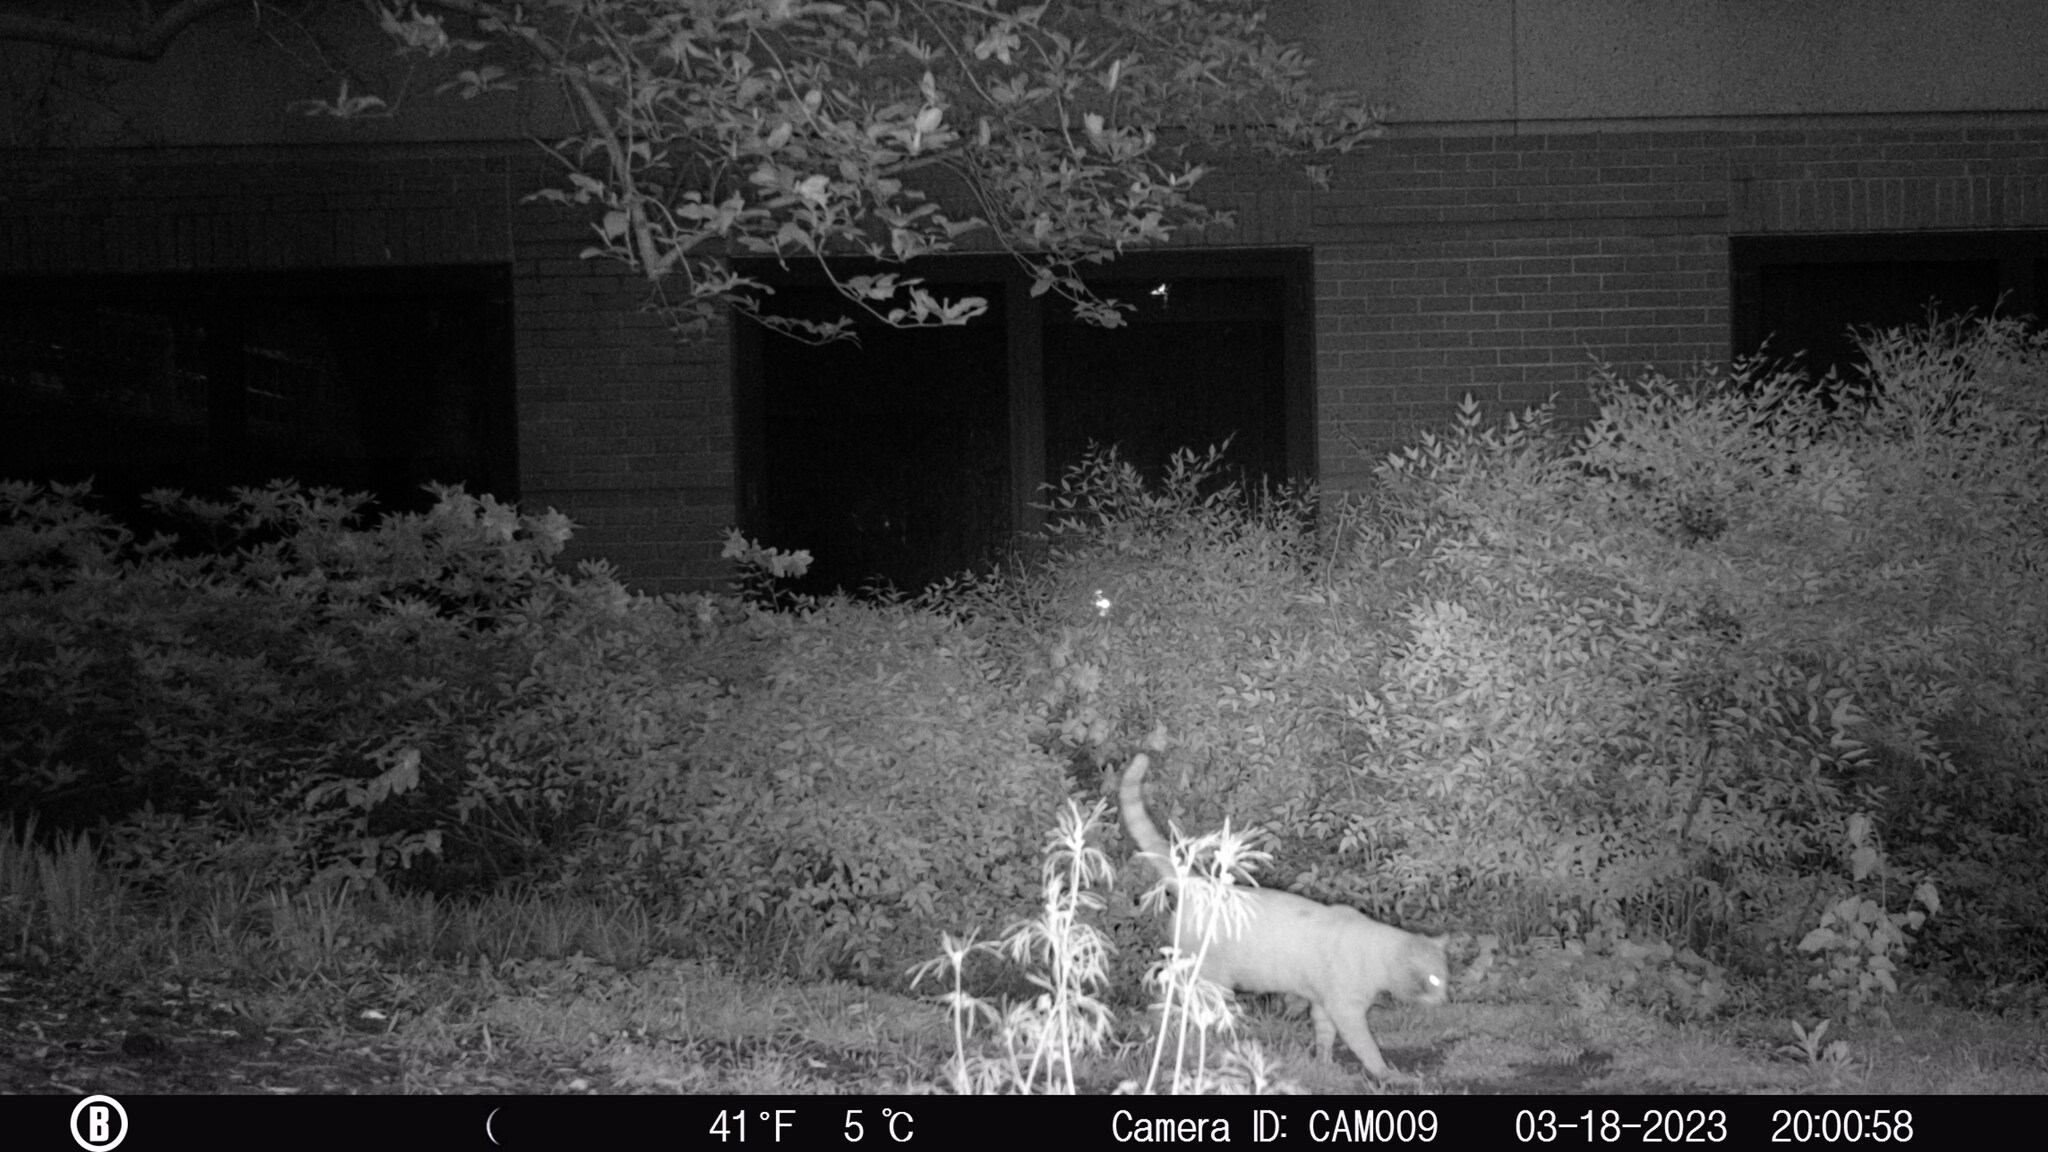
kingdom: Animalia
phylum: Chordata
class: Mammalia
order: Carnivora
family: Felidae
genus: Felis
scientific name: Felis catus
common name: Domestic cat
